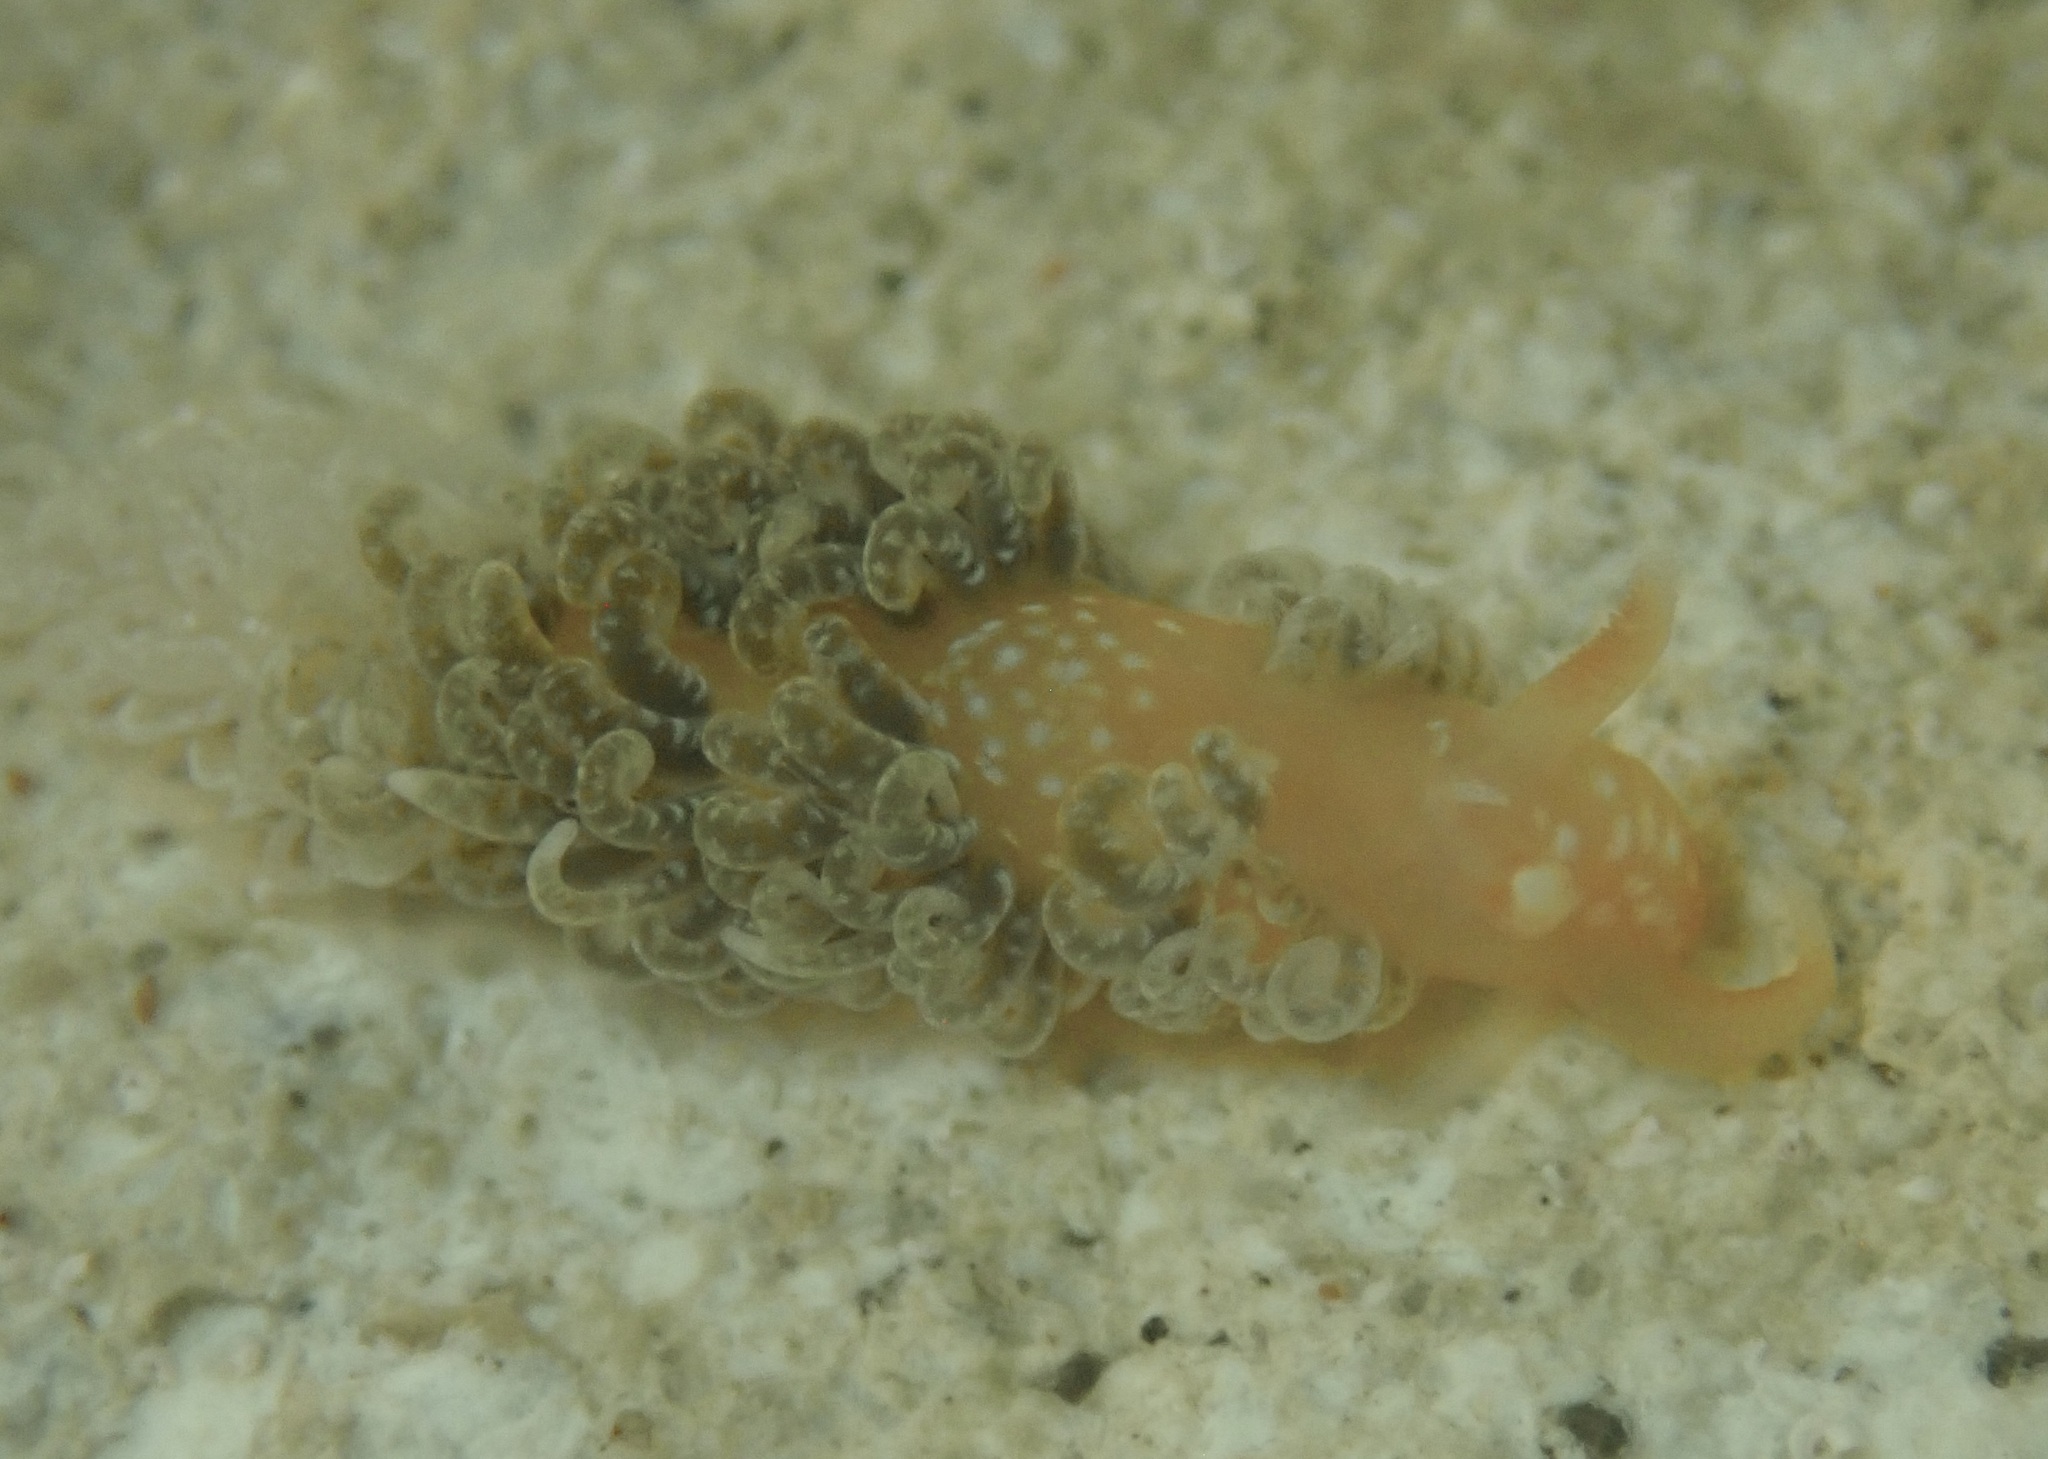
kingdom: Animalia
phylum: Mollusca
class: Gastropoda
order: Nudibranchia
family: Aeolidiidae
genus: Spurilla
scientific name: Spurilla braziliana
